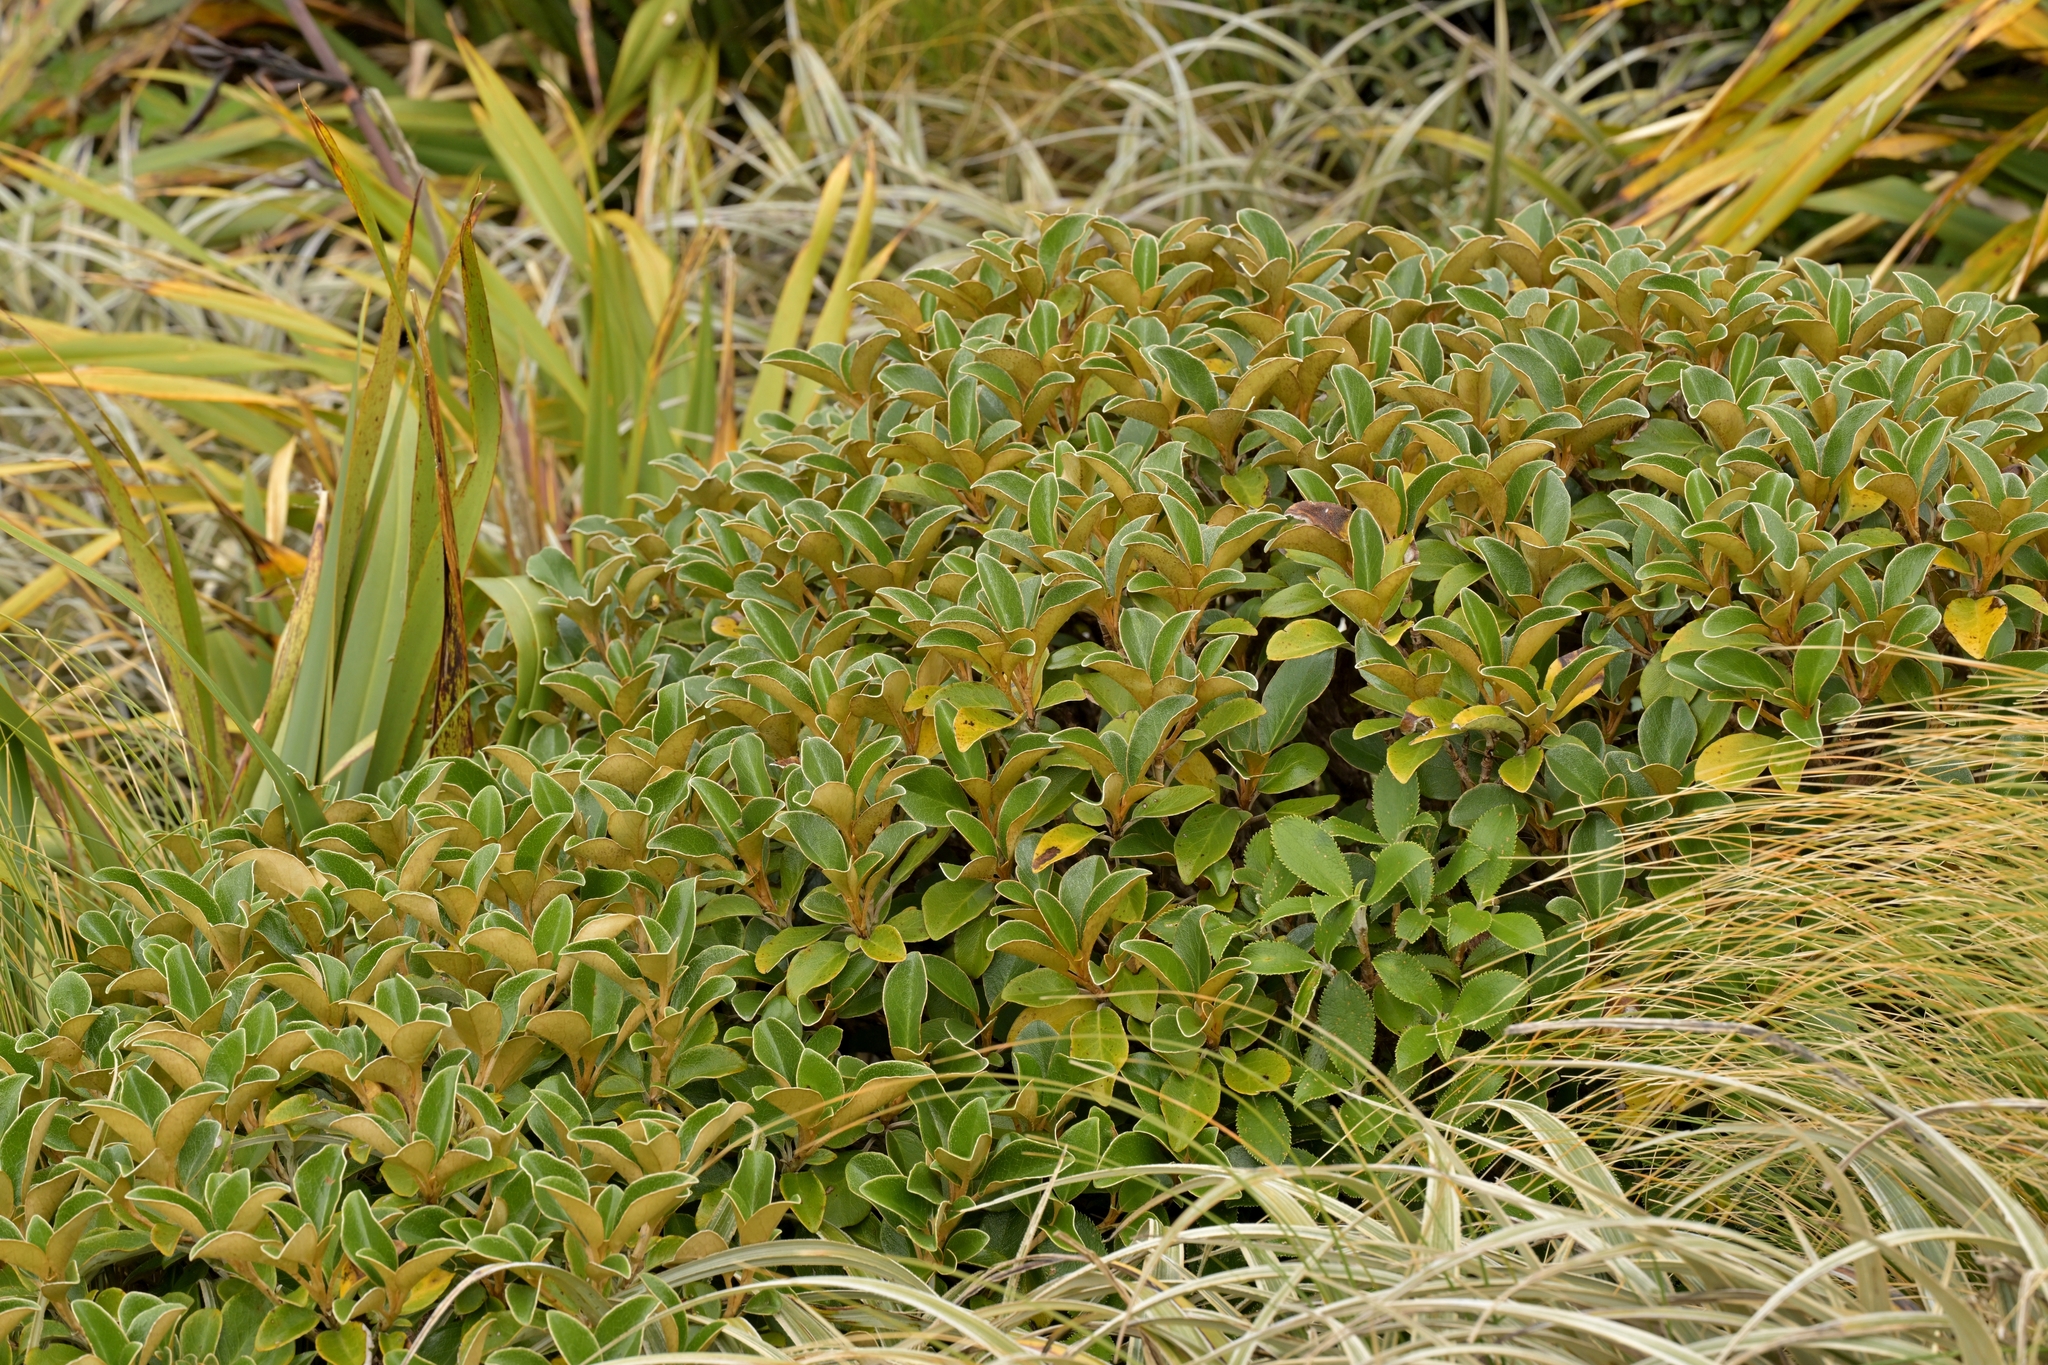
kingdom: Plantae
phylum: Tracheophyta
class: Magnoliopsida
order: Asterales
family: Asteraceae
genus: Brachyglottis
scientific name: Brachyglottis elaeagnifolia
